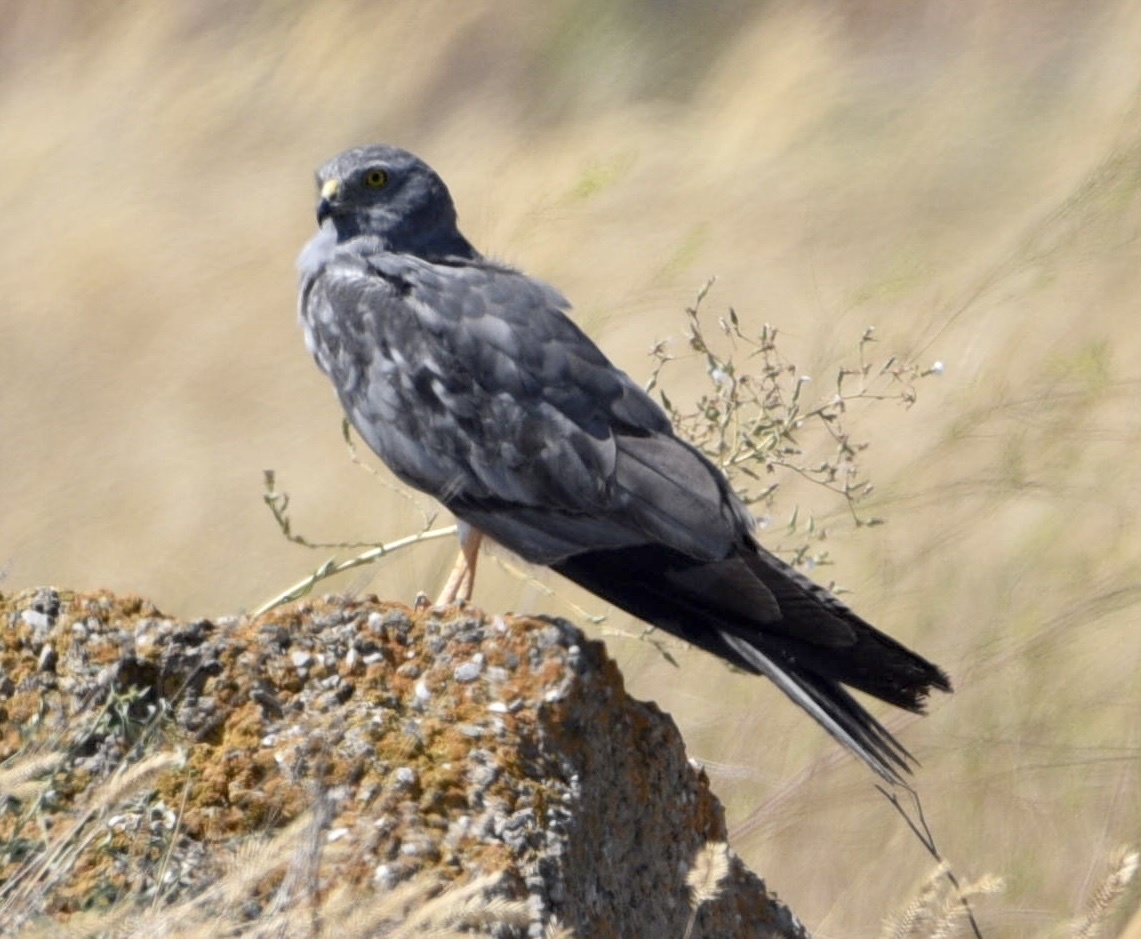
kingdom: Animalia
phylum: Chordata
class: Aves
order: Accipitriformes
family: Accipitridae
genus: Circus
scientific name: Circus pygargus
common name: Montagu's harrier
